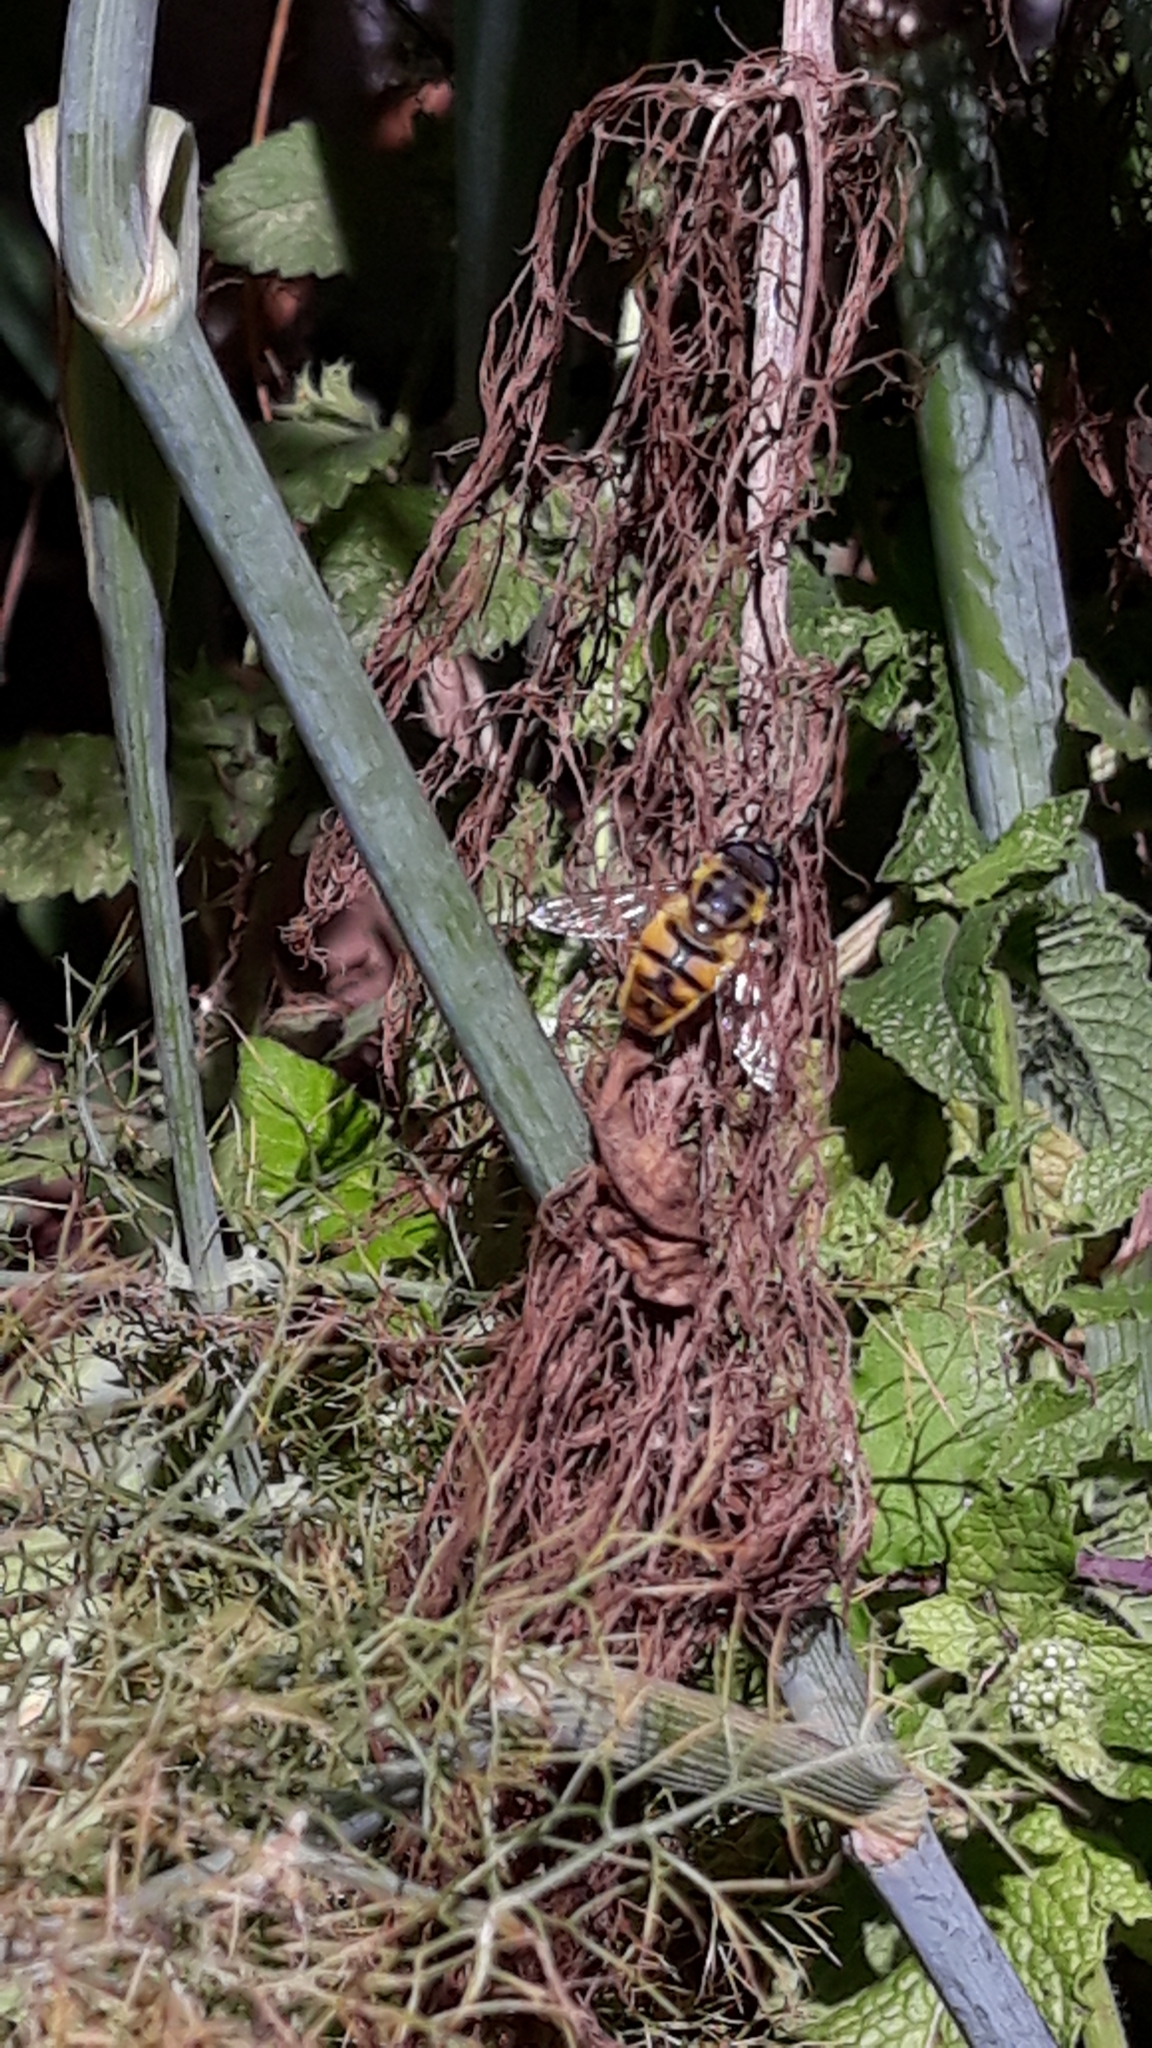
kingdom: Animalia
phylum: Arthropoda
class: Insecta
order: Diptera
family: Syrphidae
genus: Myathropa
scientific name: Myathropa florea
